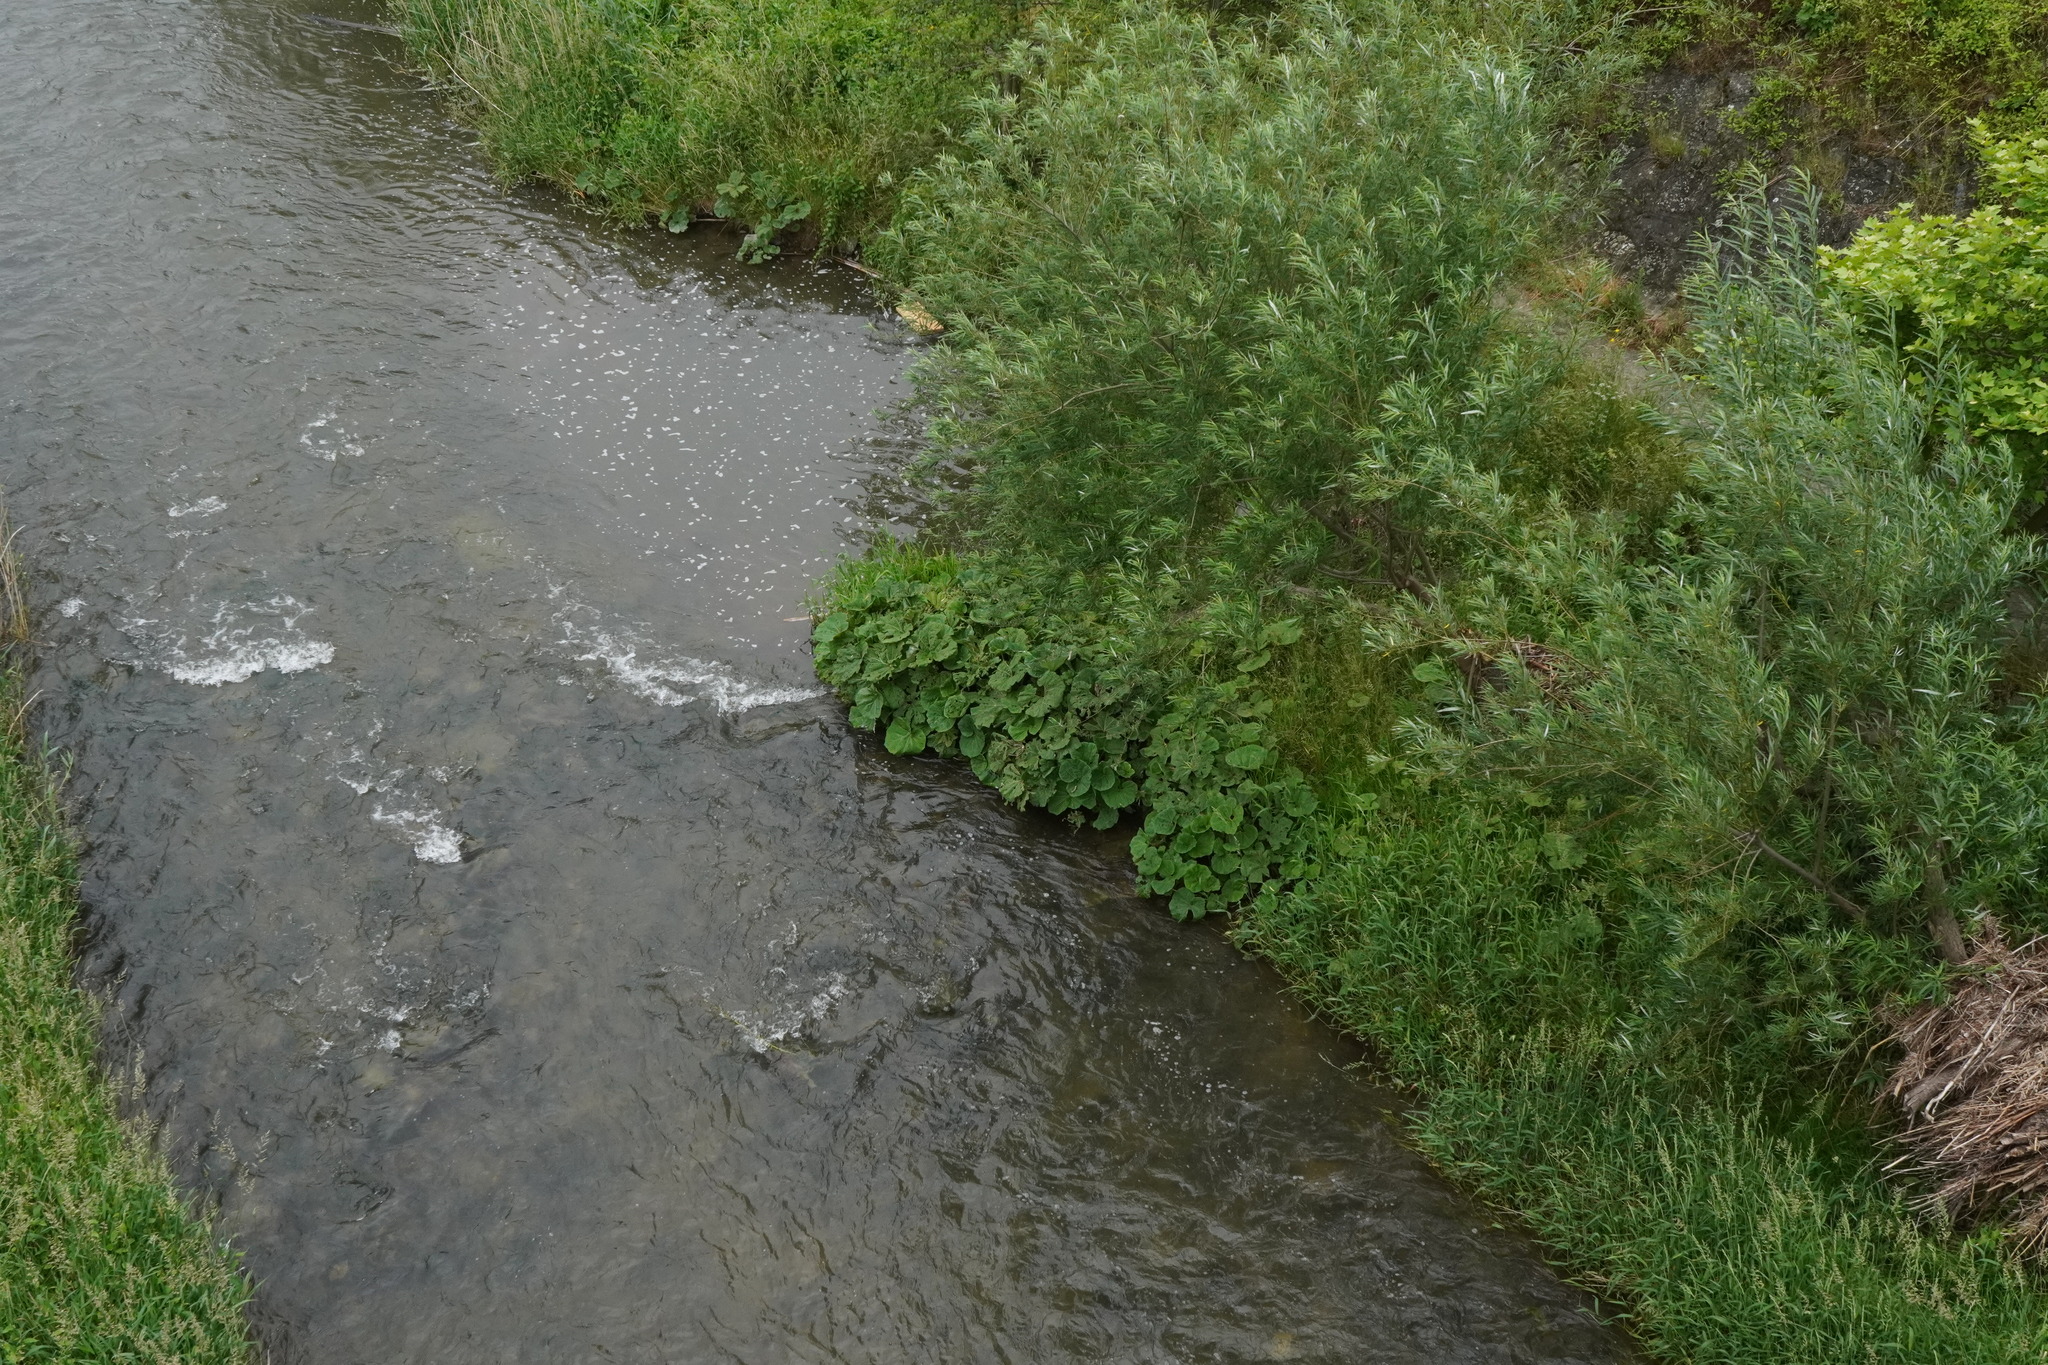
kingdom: Plantae
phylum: Tracheophyta
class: Magnoliopsida
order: Asterales
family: Asteraceae
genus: Petasites
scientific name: Petasites hybridus
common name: Butterbur
